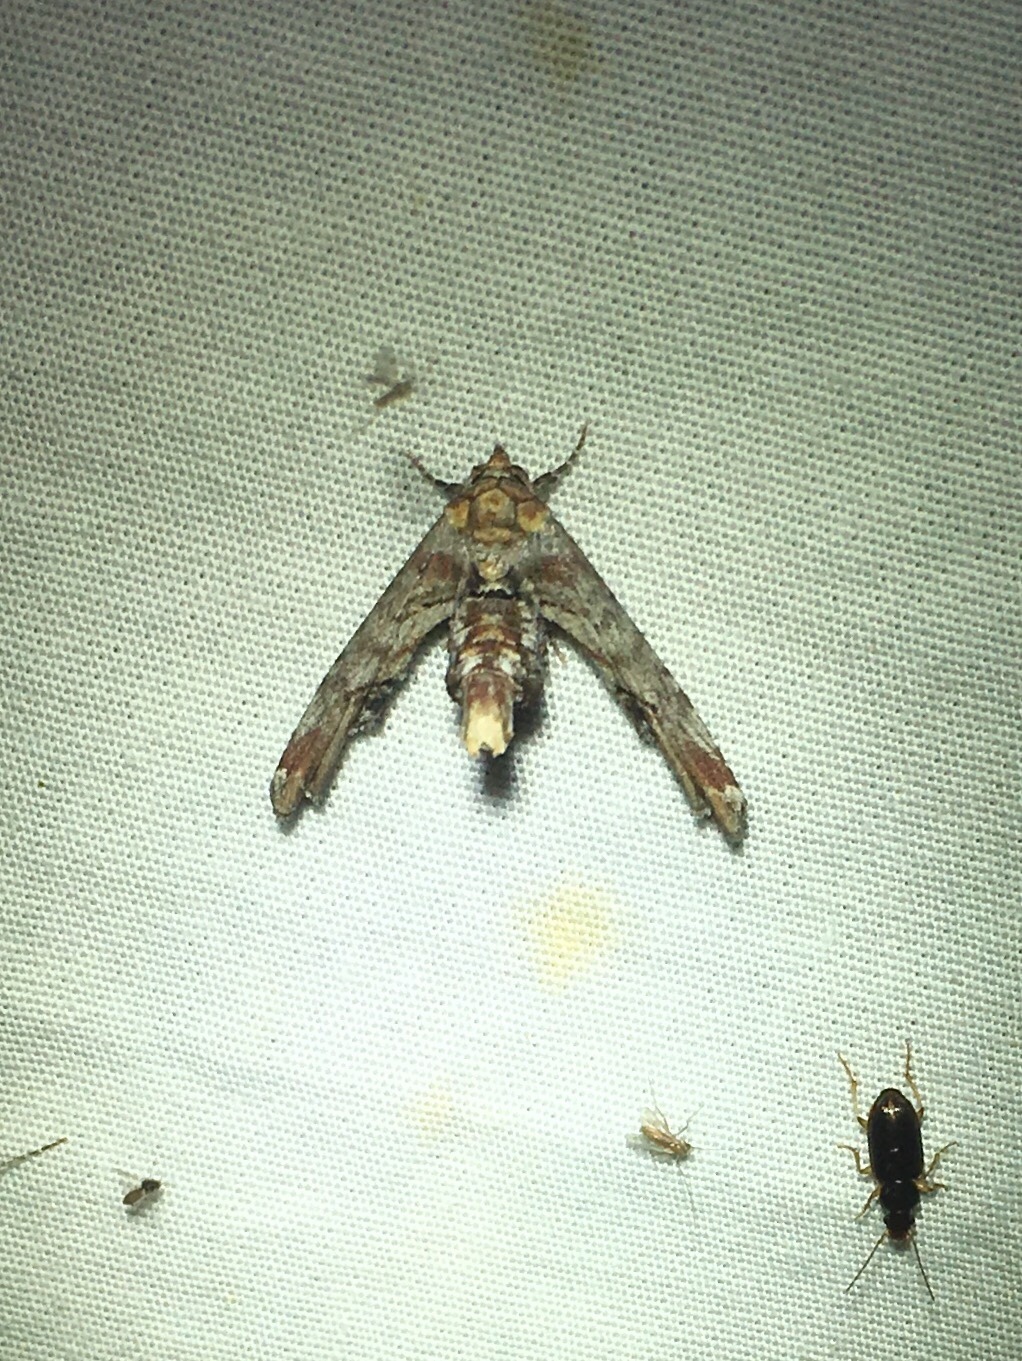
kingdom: Animalia
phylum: Arthropoda
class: Insecta
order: Lepidoptera
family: Euteliidae
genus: Marathyssa
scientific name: Marathyssa inficita
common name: Dark marathyssa moth
